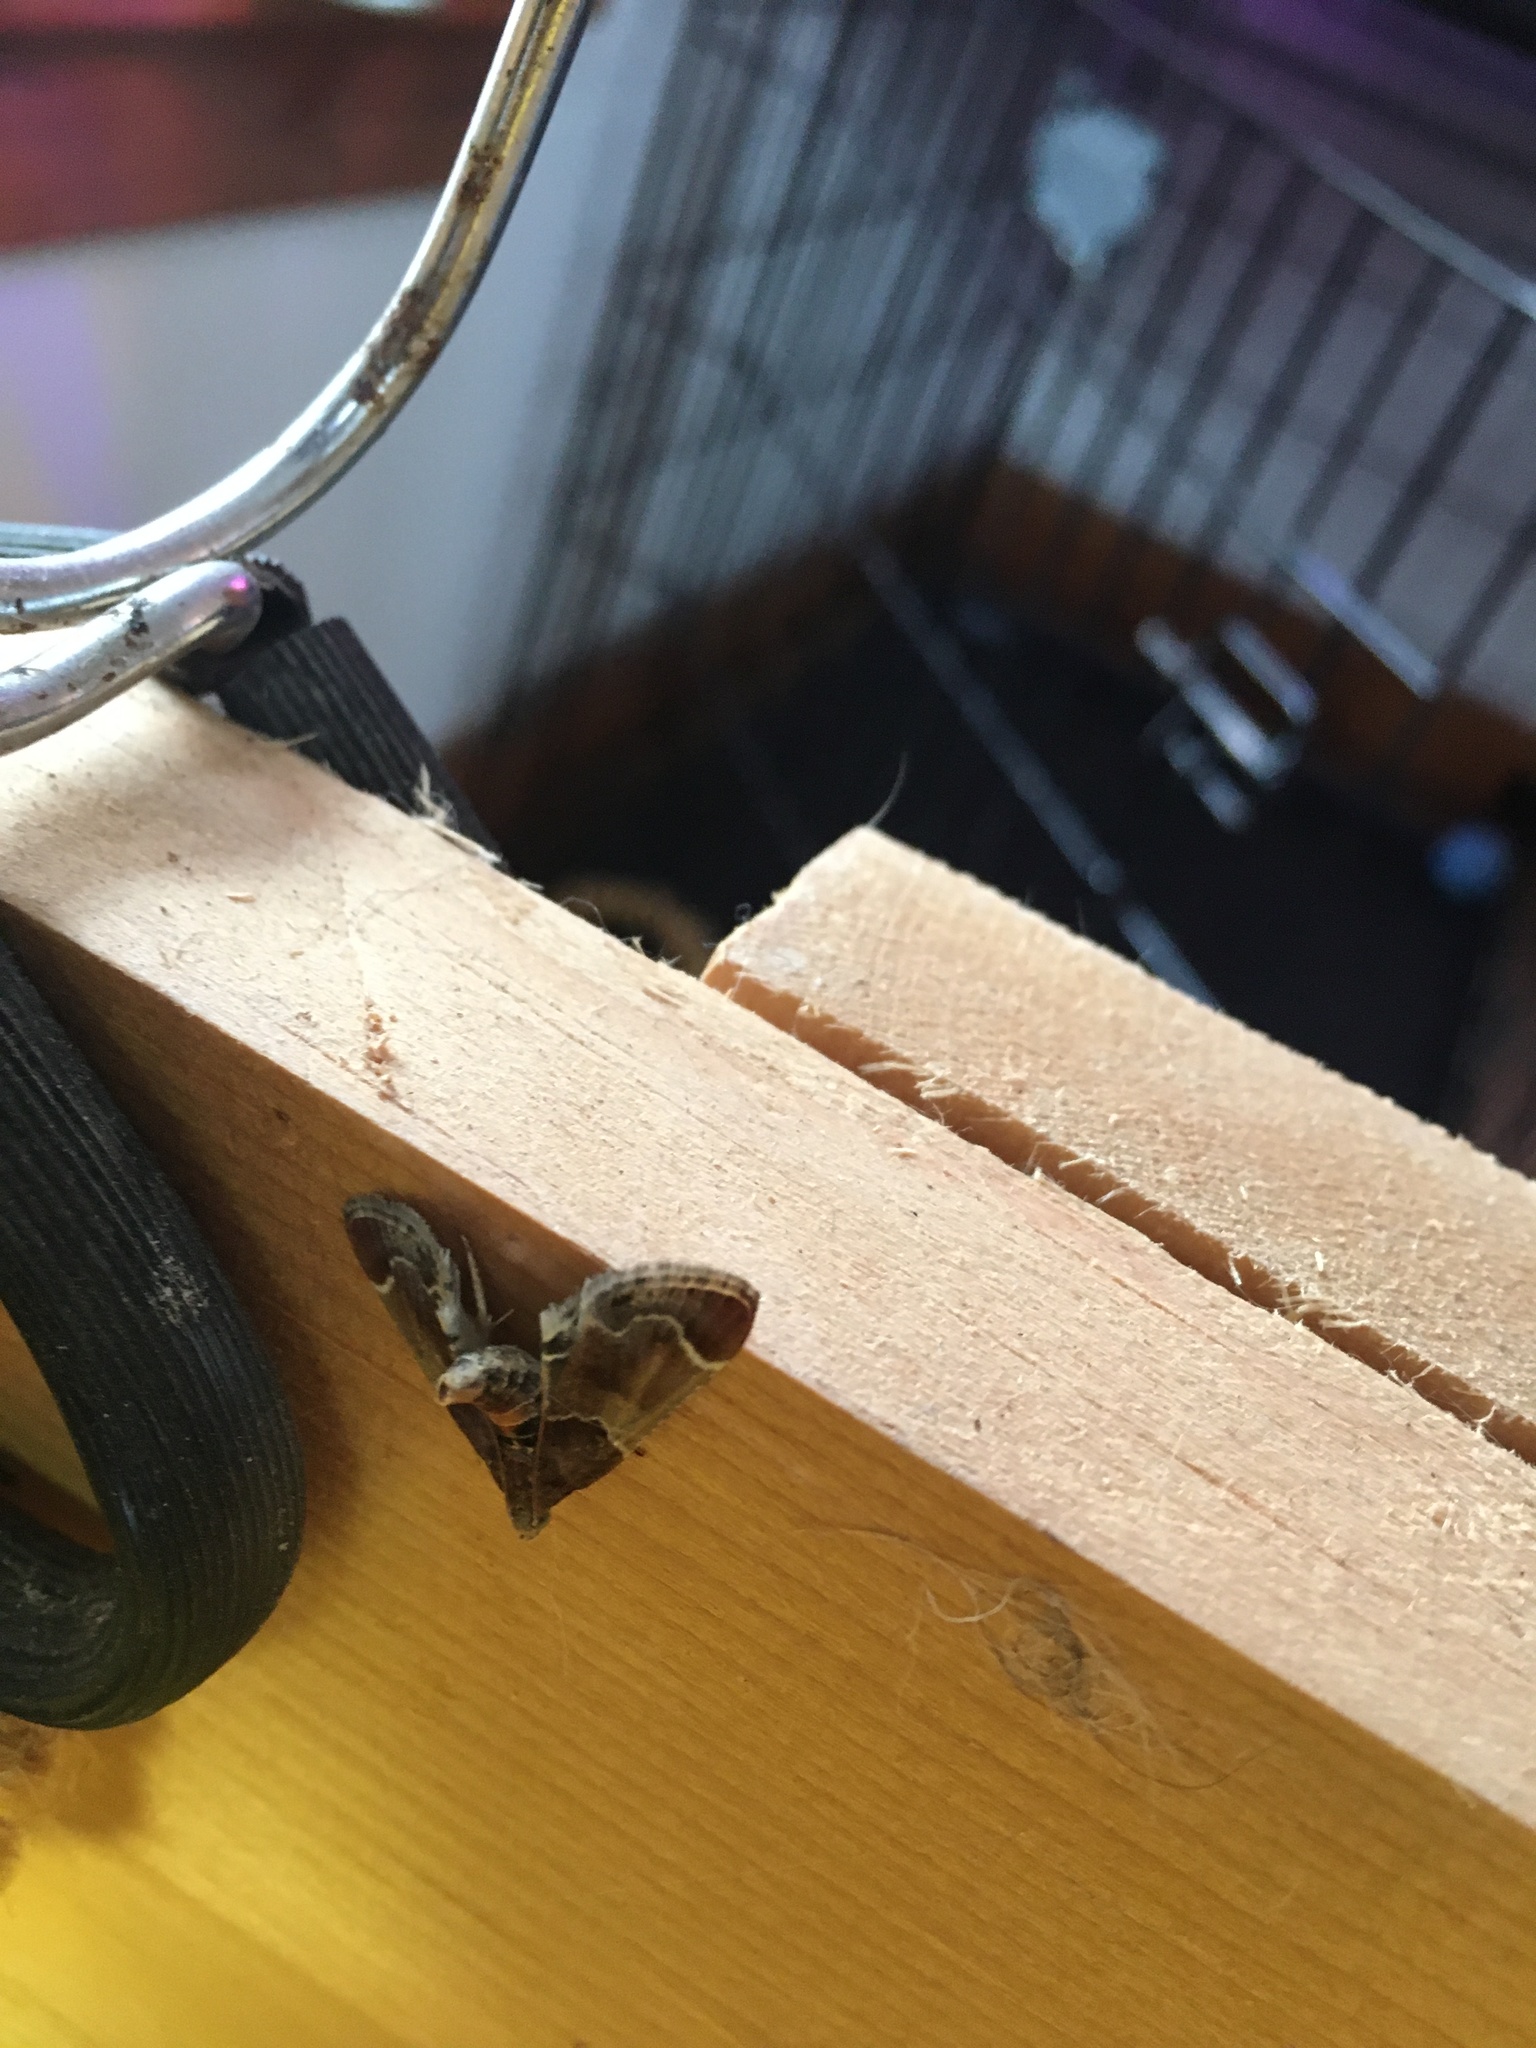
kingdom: Animalia
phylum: Arthropoda
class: Insecta
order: Lepidoptera
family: Pyralidae
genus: Pyralis
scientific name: Pyralis farinalis
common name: Meal moth
